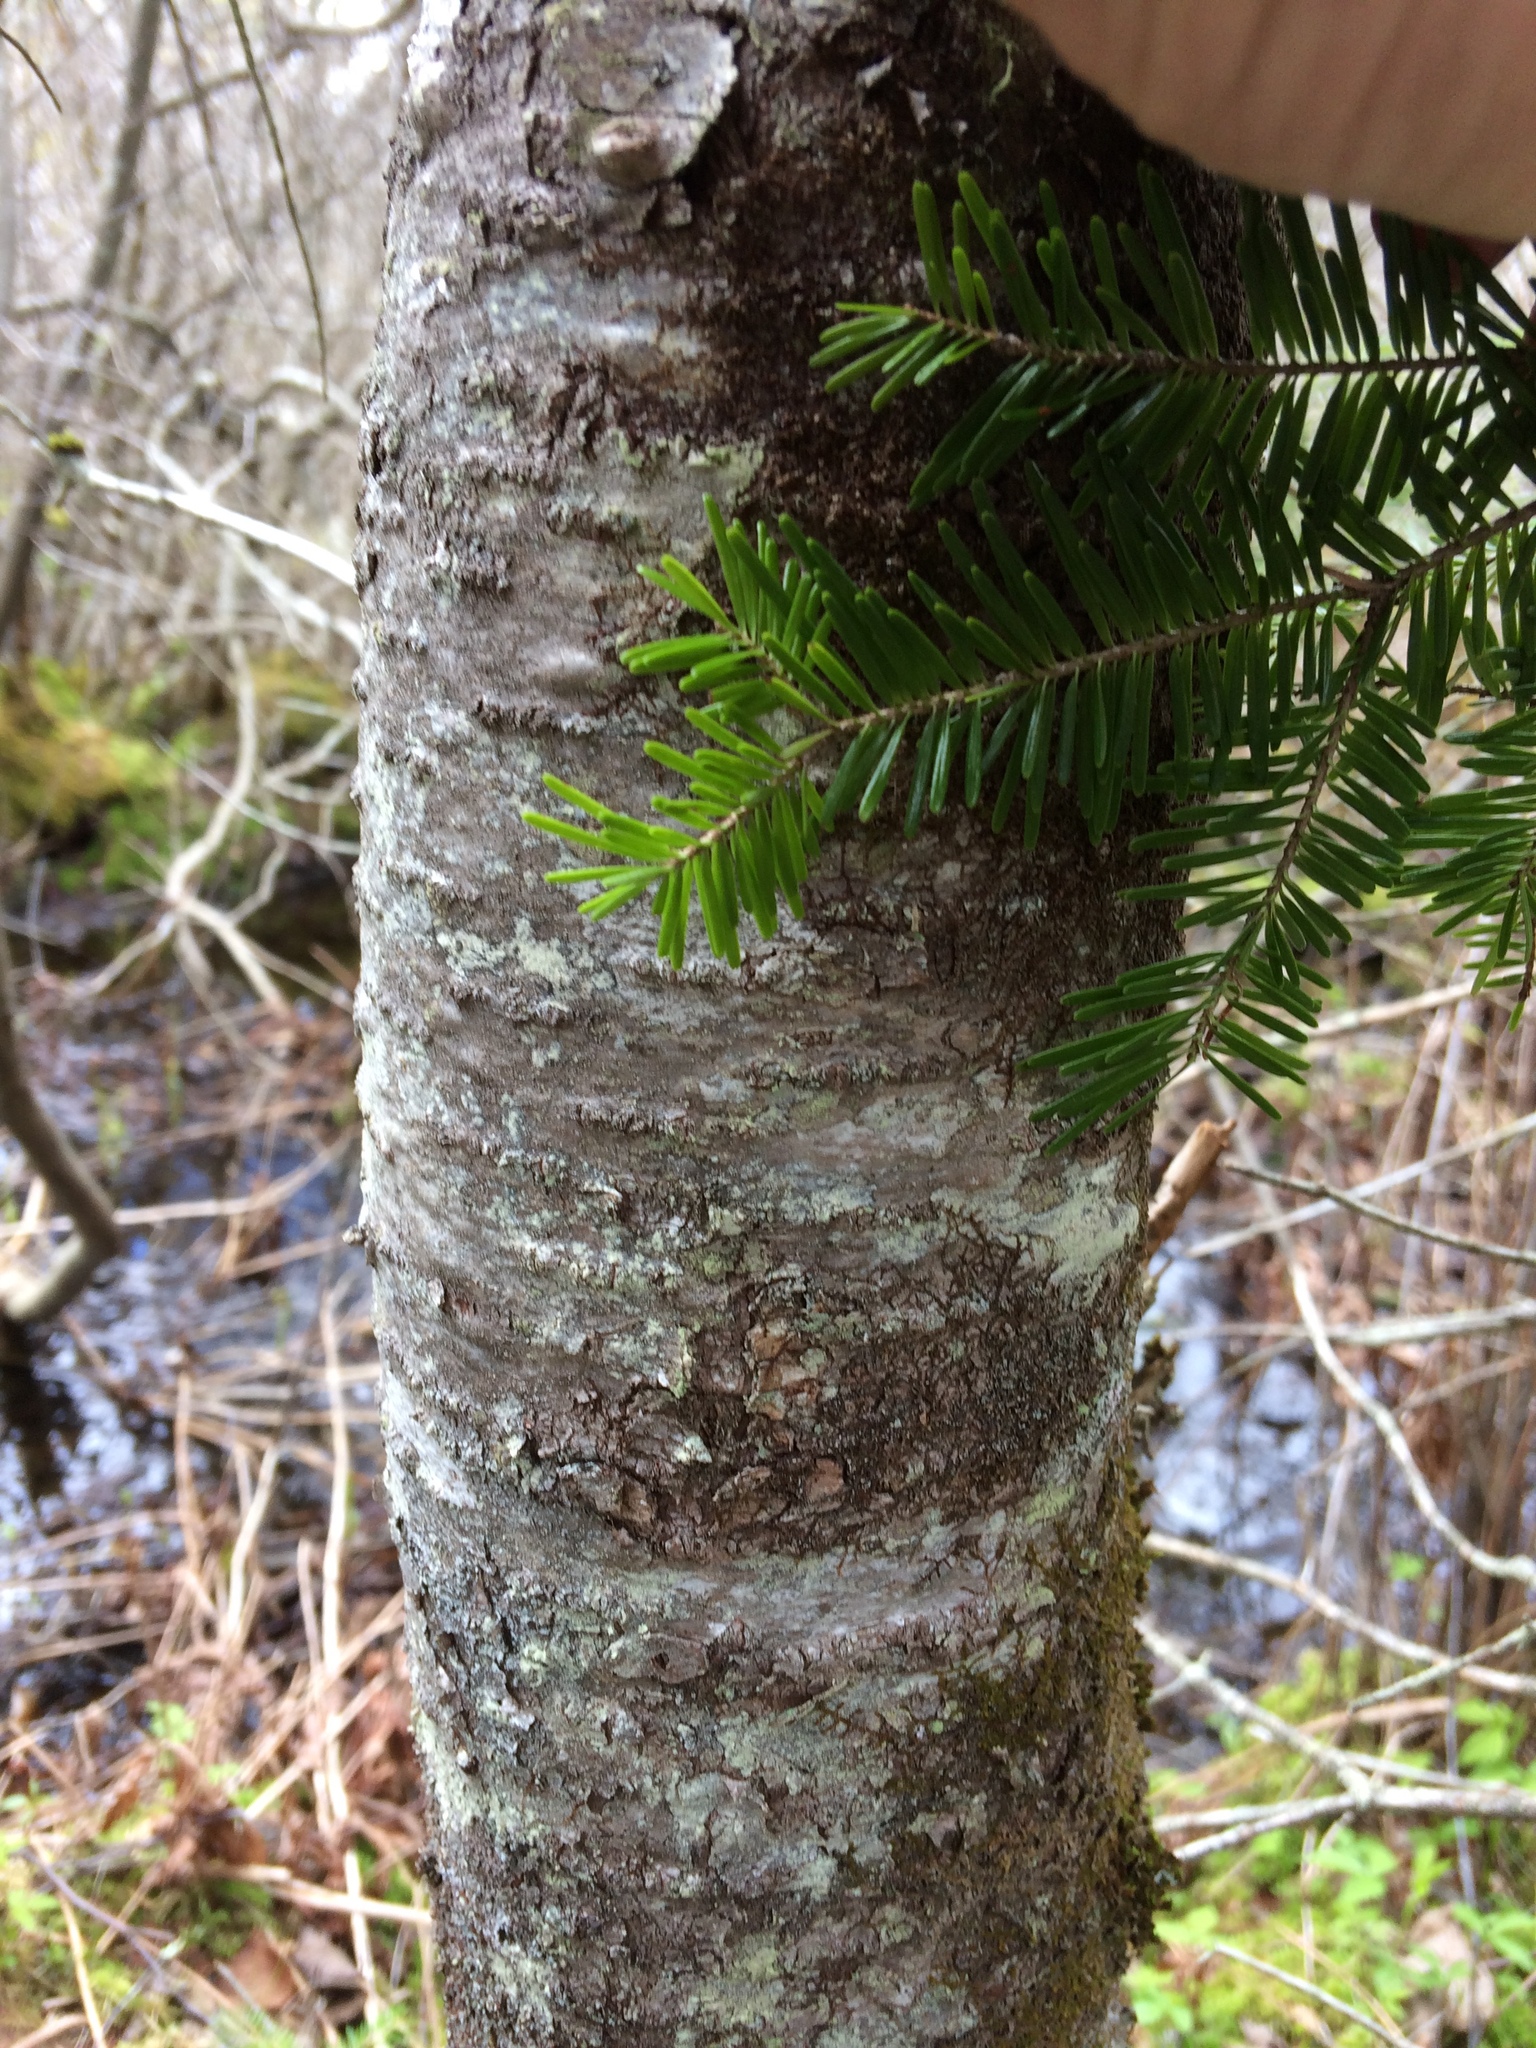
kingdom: Plantae
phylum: Tracheophyta
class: Pinopsida
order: Pinales
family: Pinaceae
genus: Abies
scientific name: Abies balsamea
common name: Balsam fir
